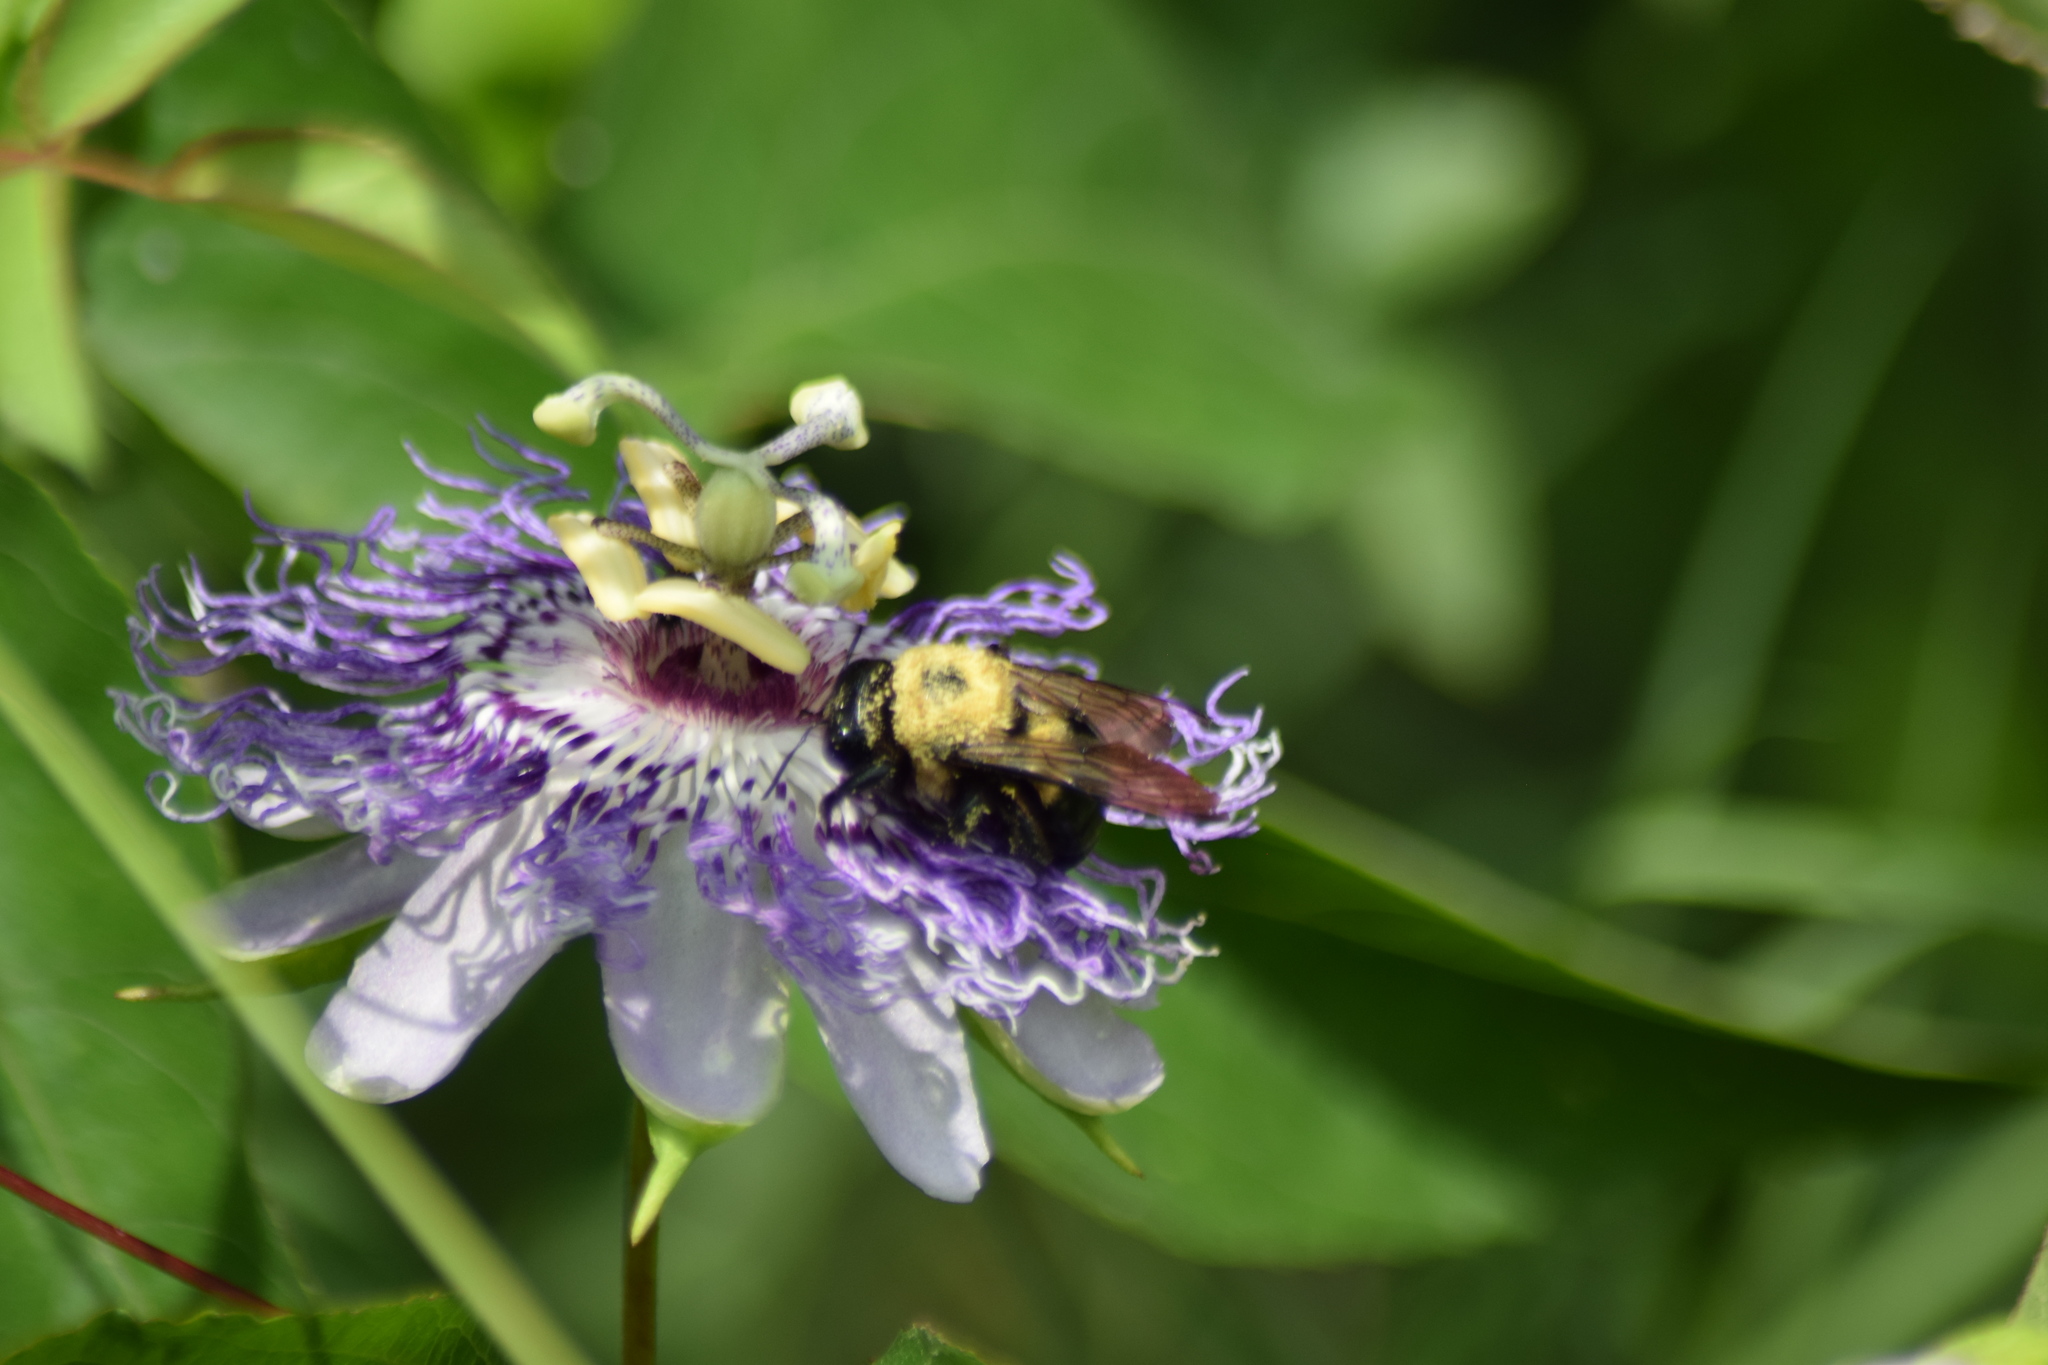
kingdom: Animalia
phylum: Arthropoda
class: Insecta
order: Hymenoptera
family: Apidae
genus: Xylocopa
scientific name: Xylocopa virginica
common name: Carpenter bee
